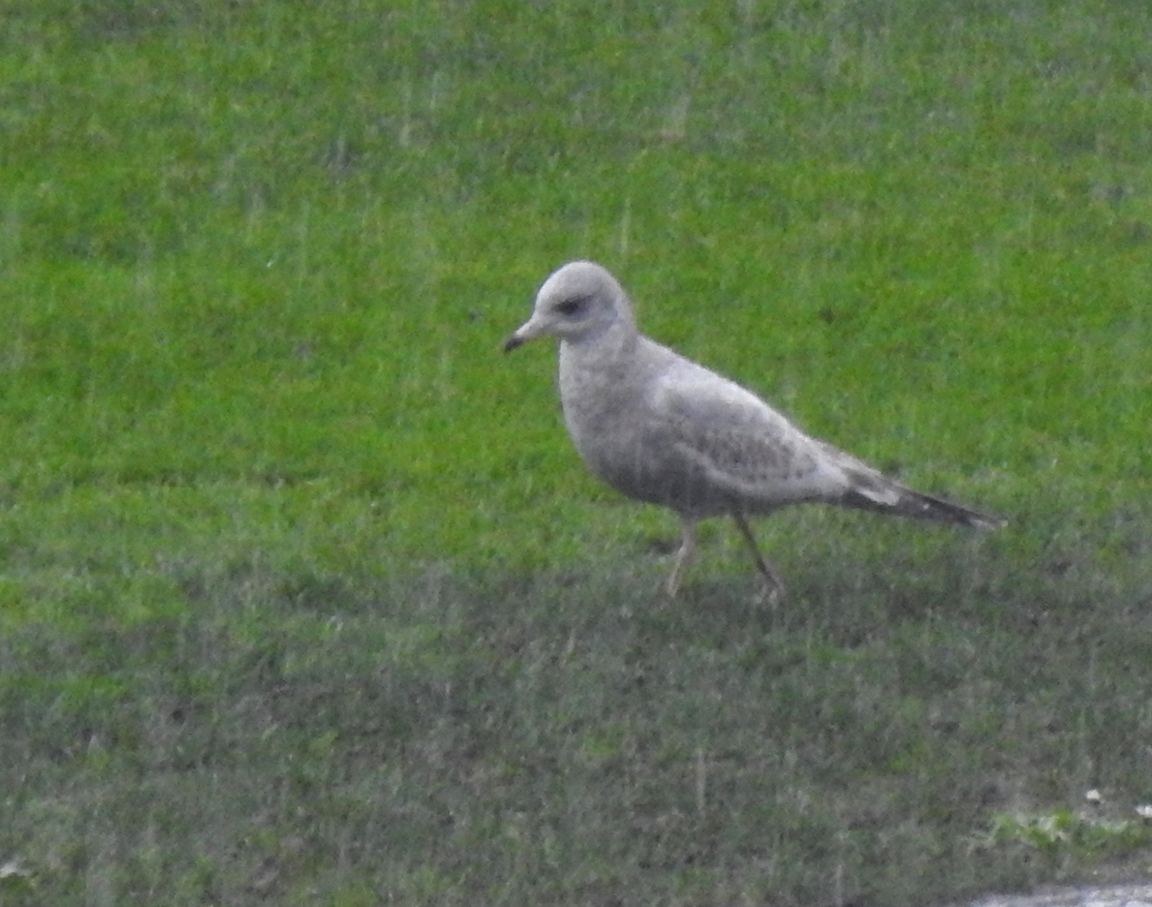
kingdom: Animalia
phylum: Chordata
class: Aves
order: Charadriiformes
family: Laridae
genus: Larus
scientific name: Larus brachyrhynchus
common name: Short-billed gull
